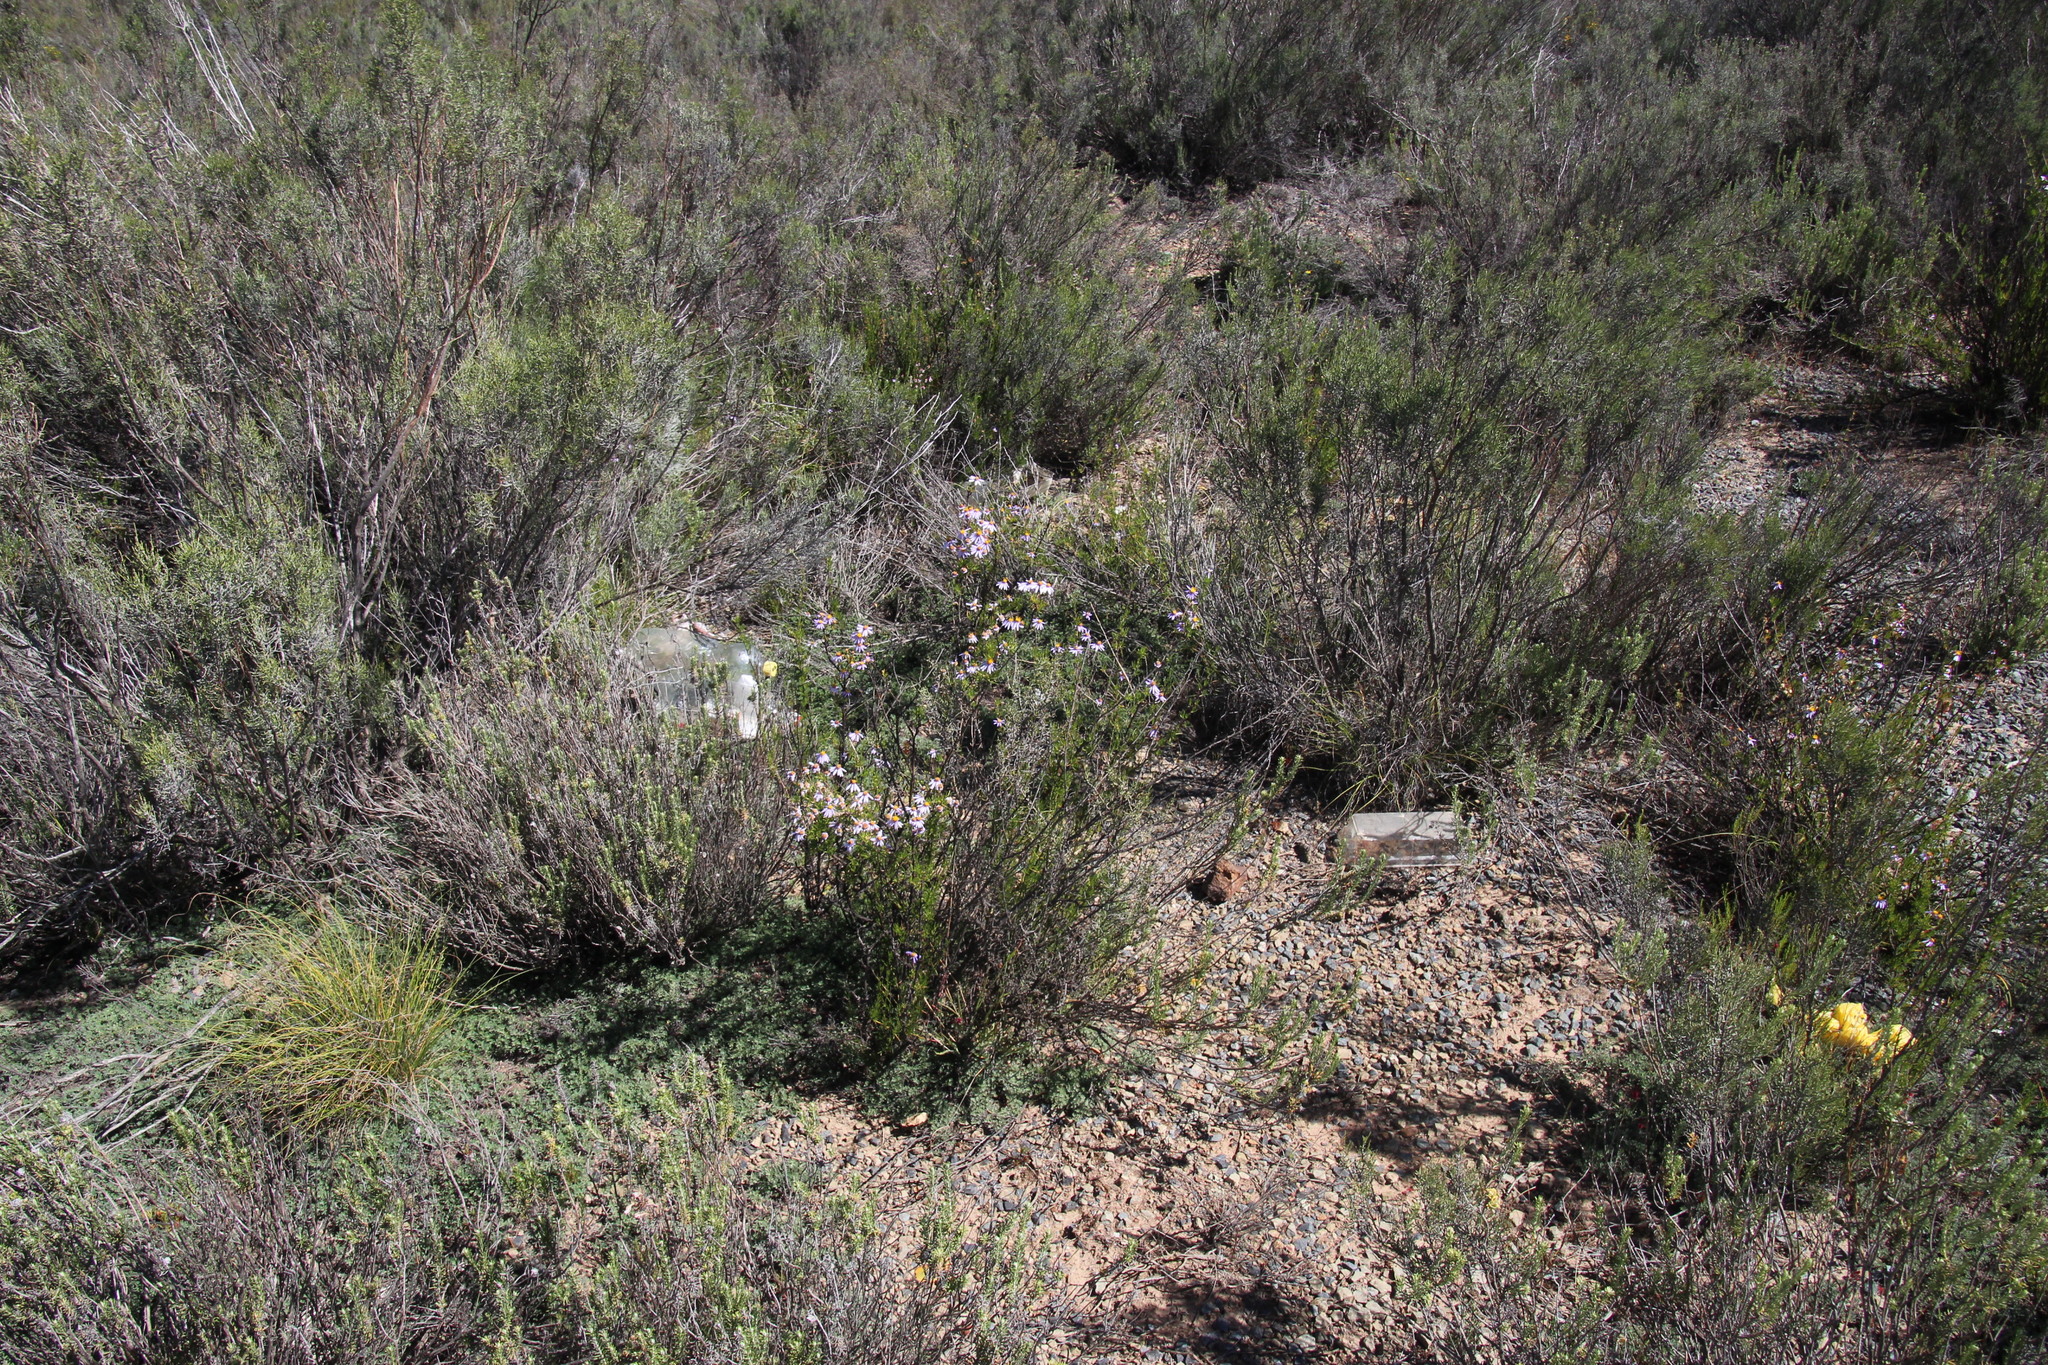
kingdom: Plantae
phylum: Tracheophyta
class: Magnoliopsida
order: Asterales
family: Asteraceae
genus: Felicia
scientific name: Felicia filifolia
